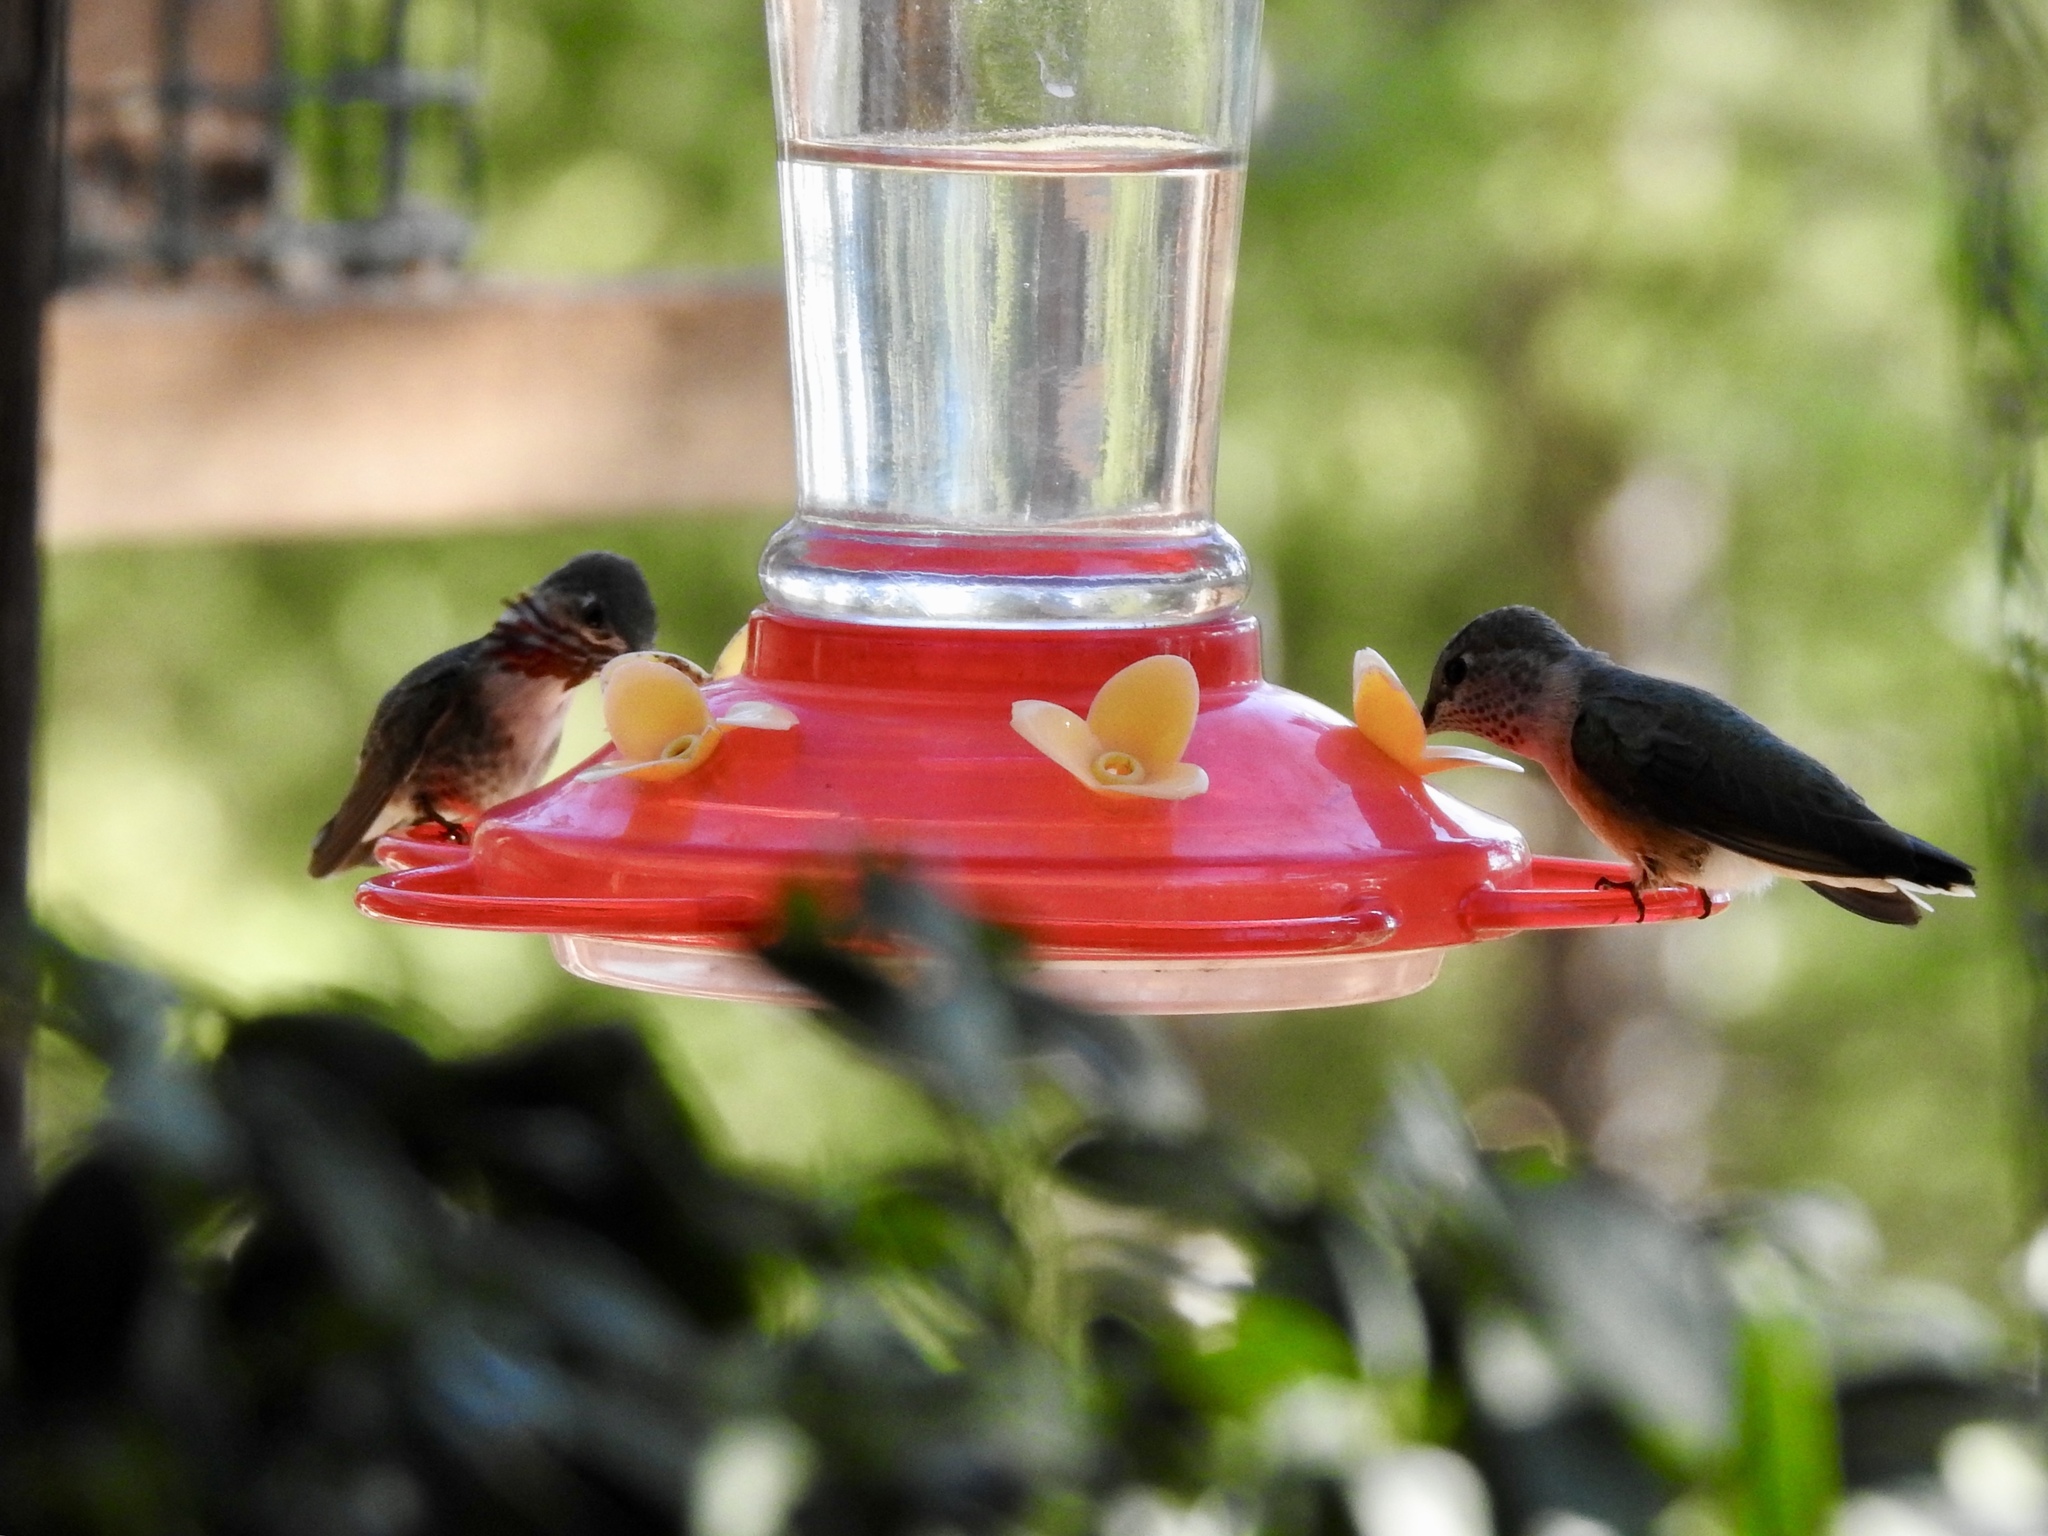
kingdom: Animalia
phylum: Chordata
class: Aves
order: Apodiformes
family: Trochilidae
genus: Selasphorus
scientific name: Selasphorus calliope
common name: Calliope hummingbird
